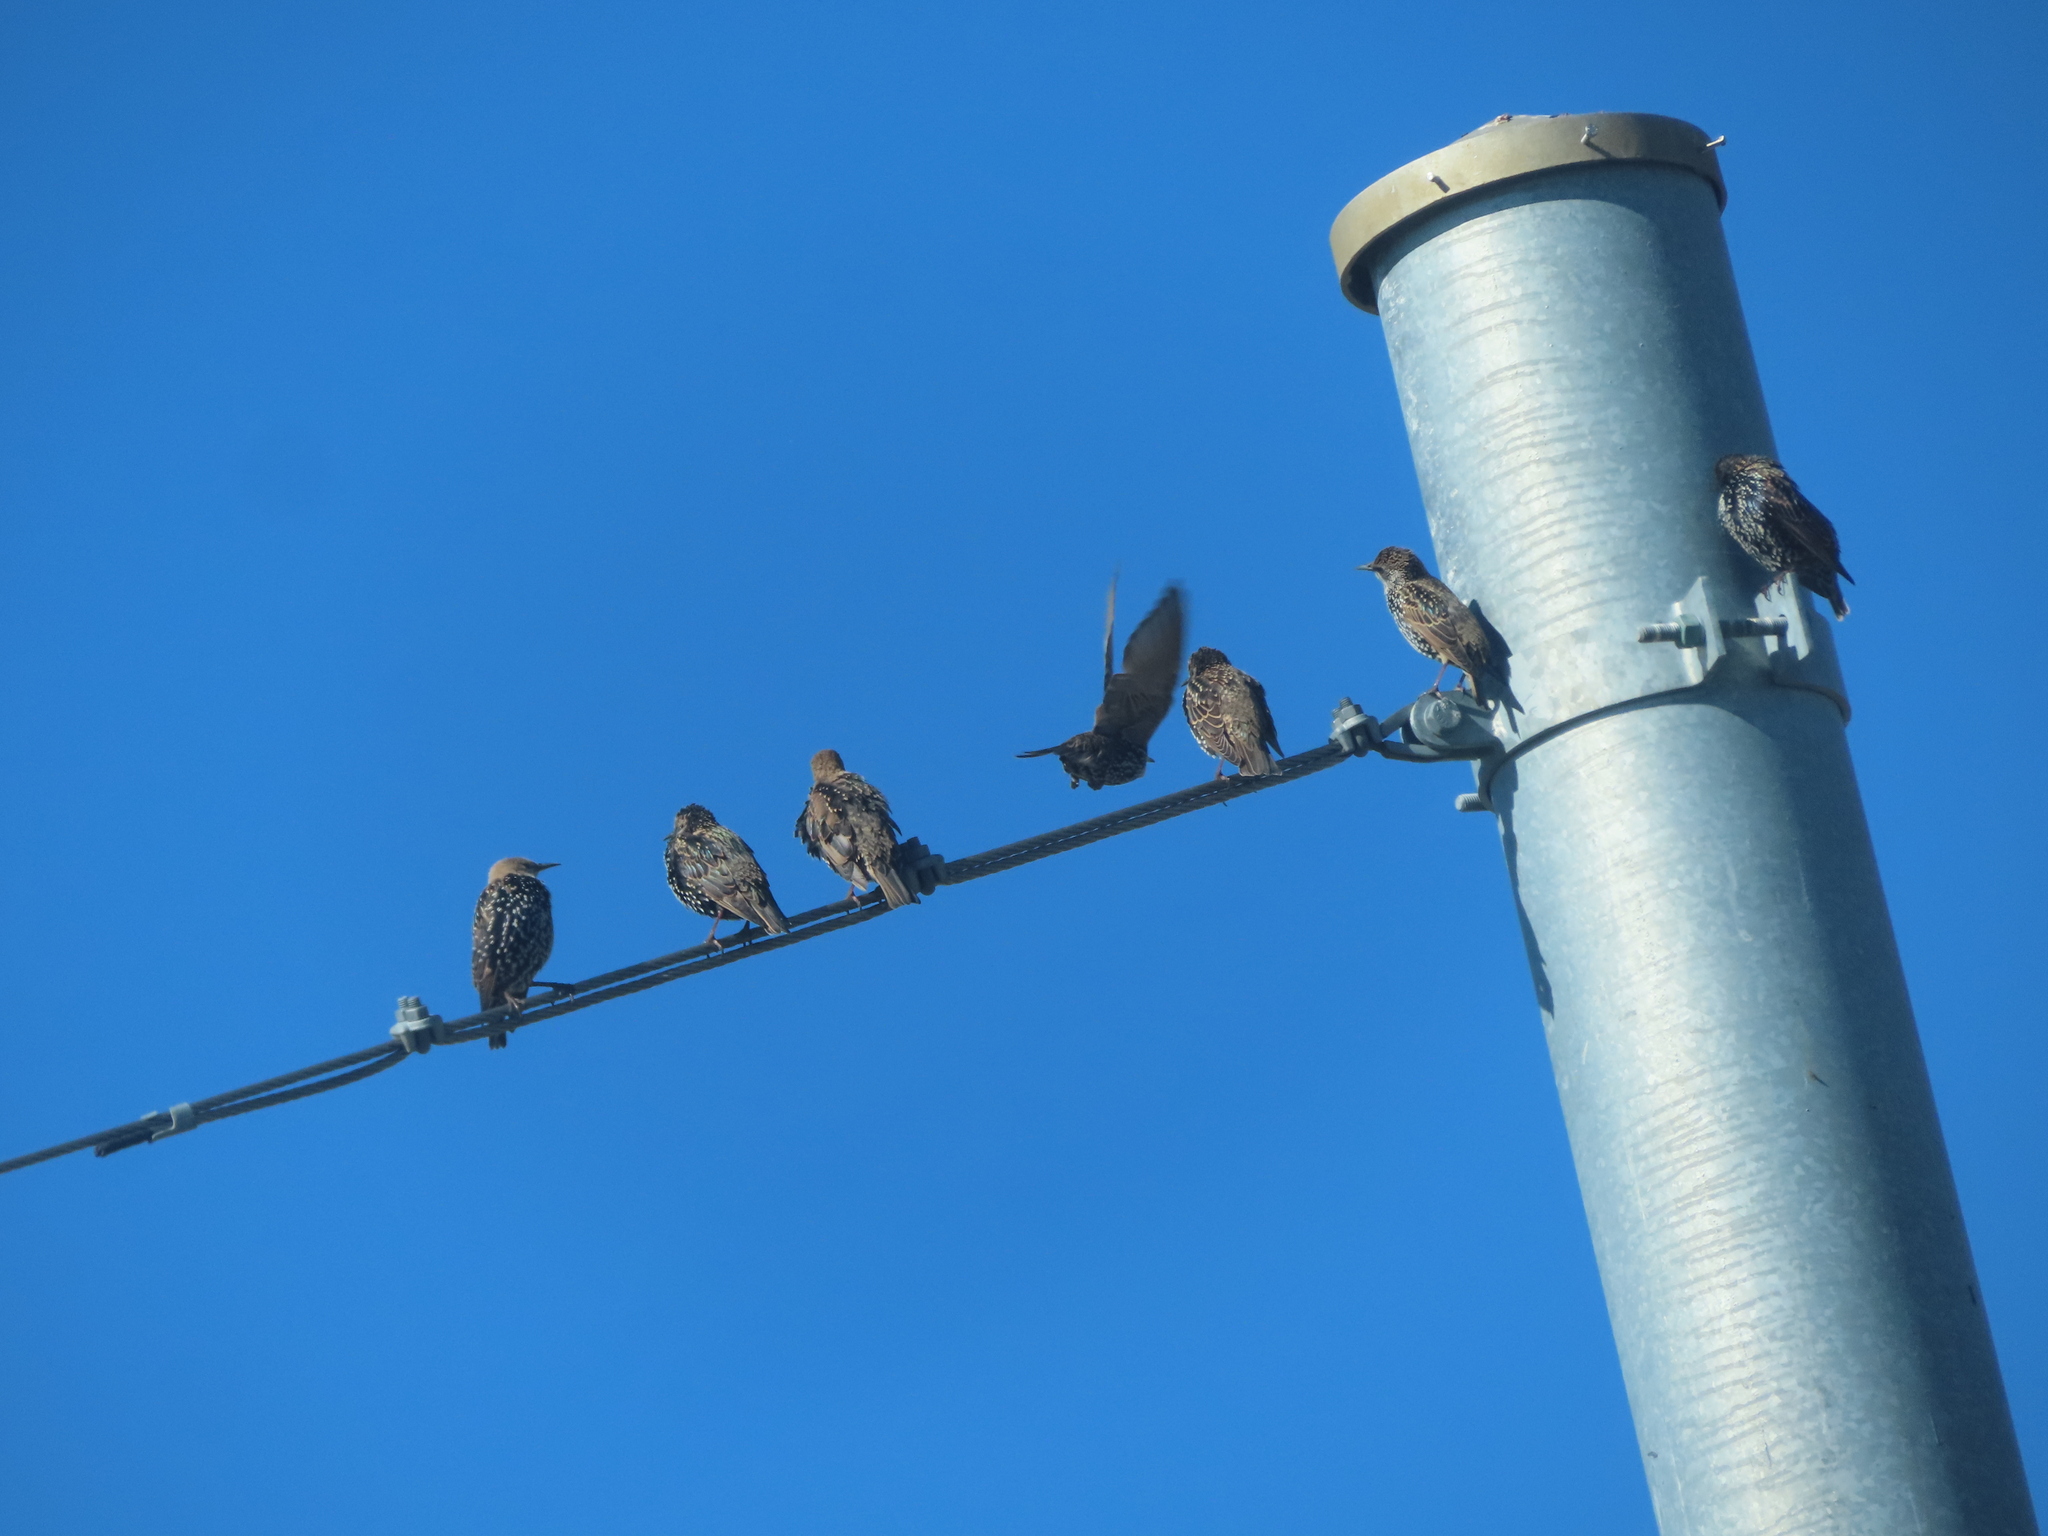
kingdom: Animalia
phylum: Chordata
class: Aves
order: Passeriformes
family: Sturnidae
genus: Sturnus
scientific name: Sturnus vulgaris
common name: Common starling
